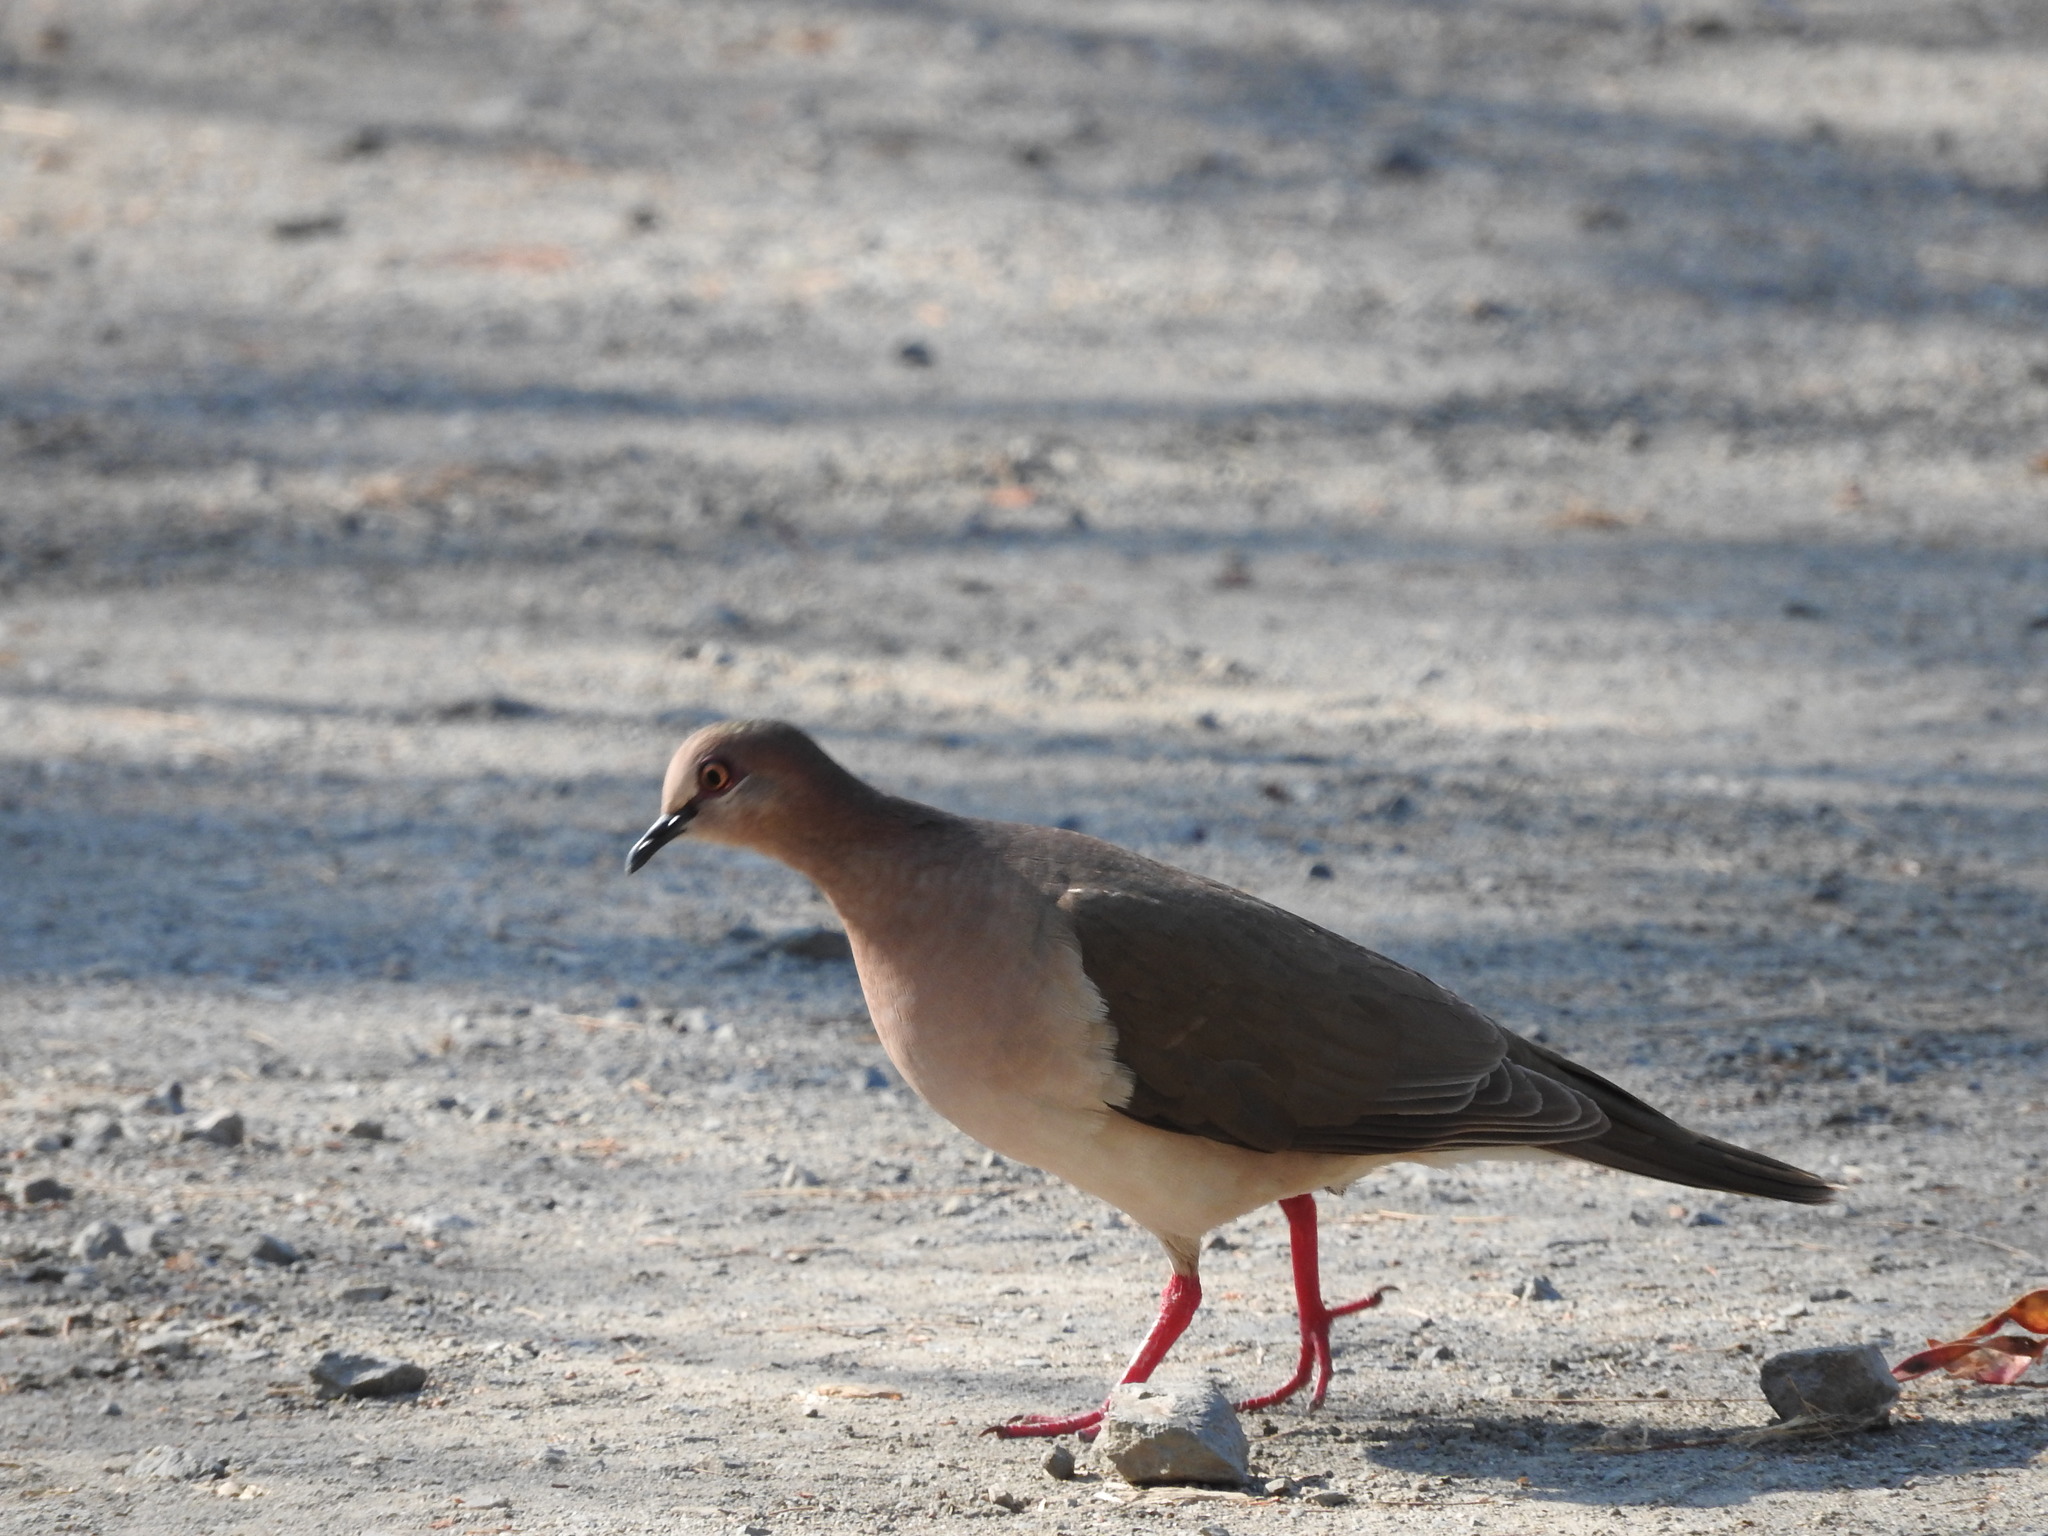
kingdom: Animalia
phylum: Chordata
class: Aves
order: Columbiformes
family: Columbidae
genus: Leptotila
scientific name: Leptotila verreauxi
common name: White-tipped dove
